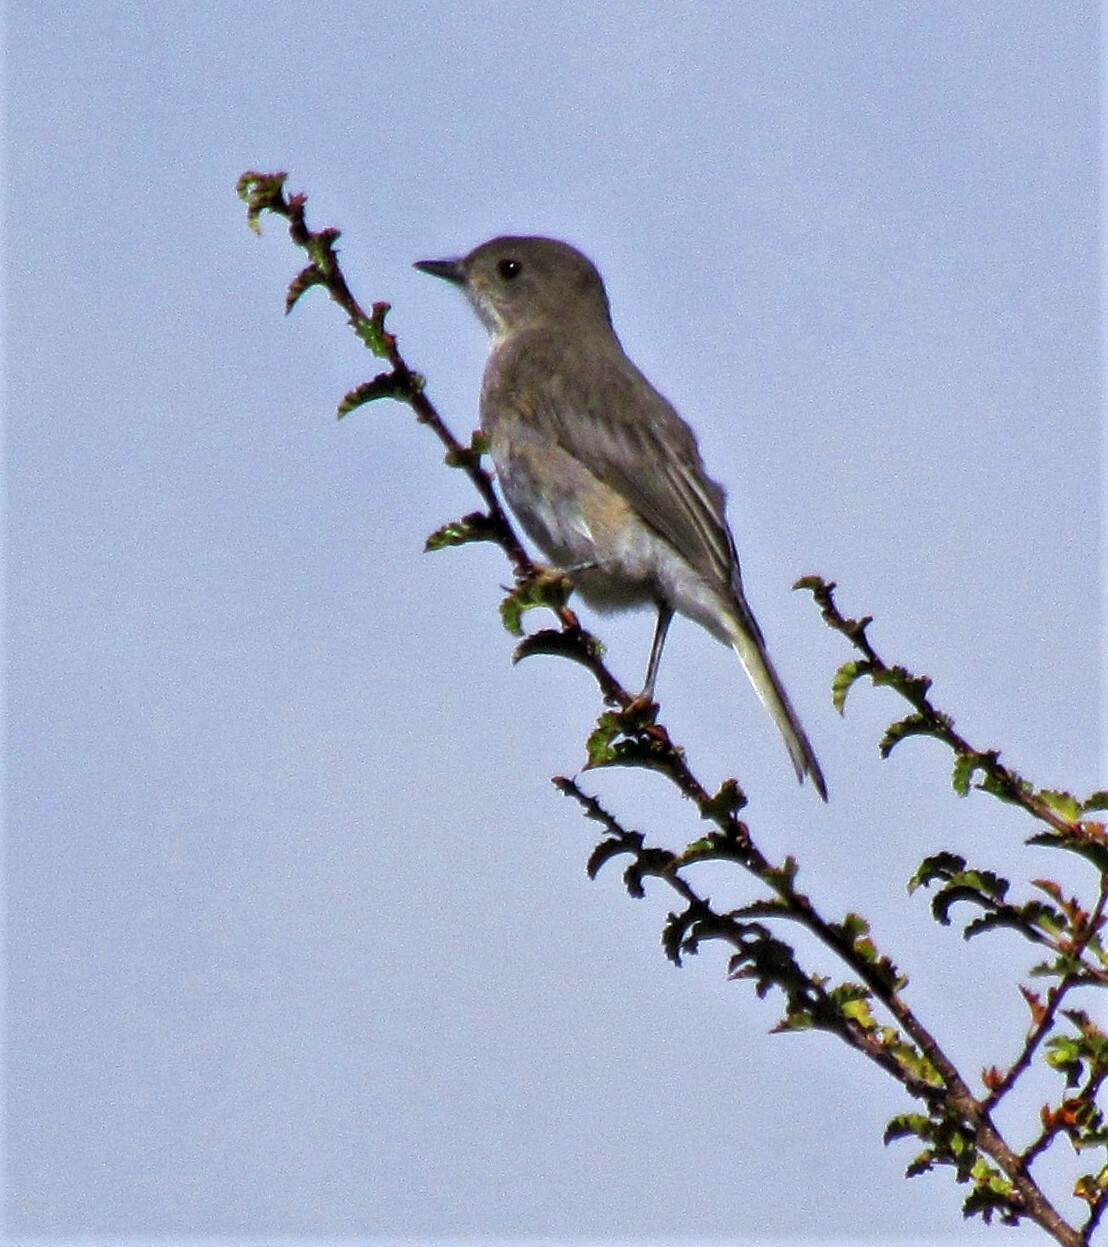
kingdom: Animalia
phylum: Chordata
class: Aves
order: Passeriformes
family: Tyrannidae
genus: Xolmis
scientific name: Xolmis pyrope
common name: Fire-eyed diucon
